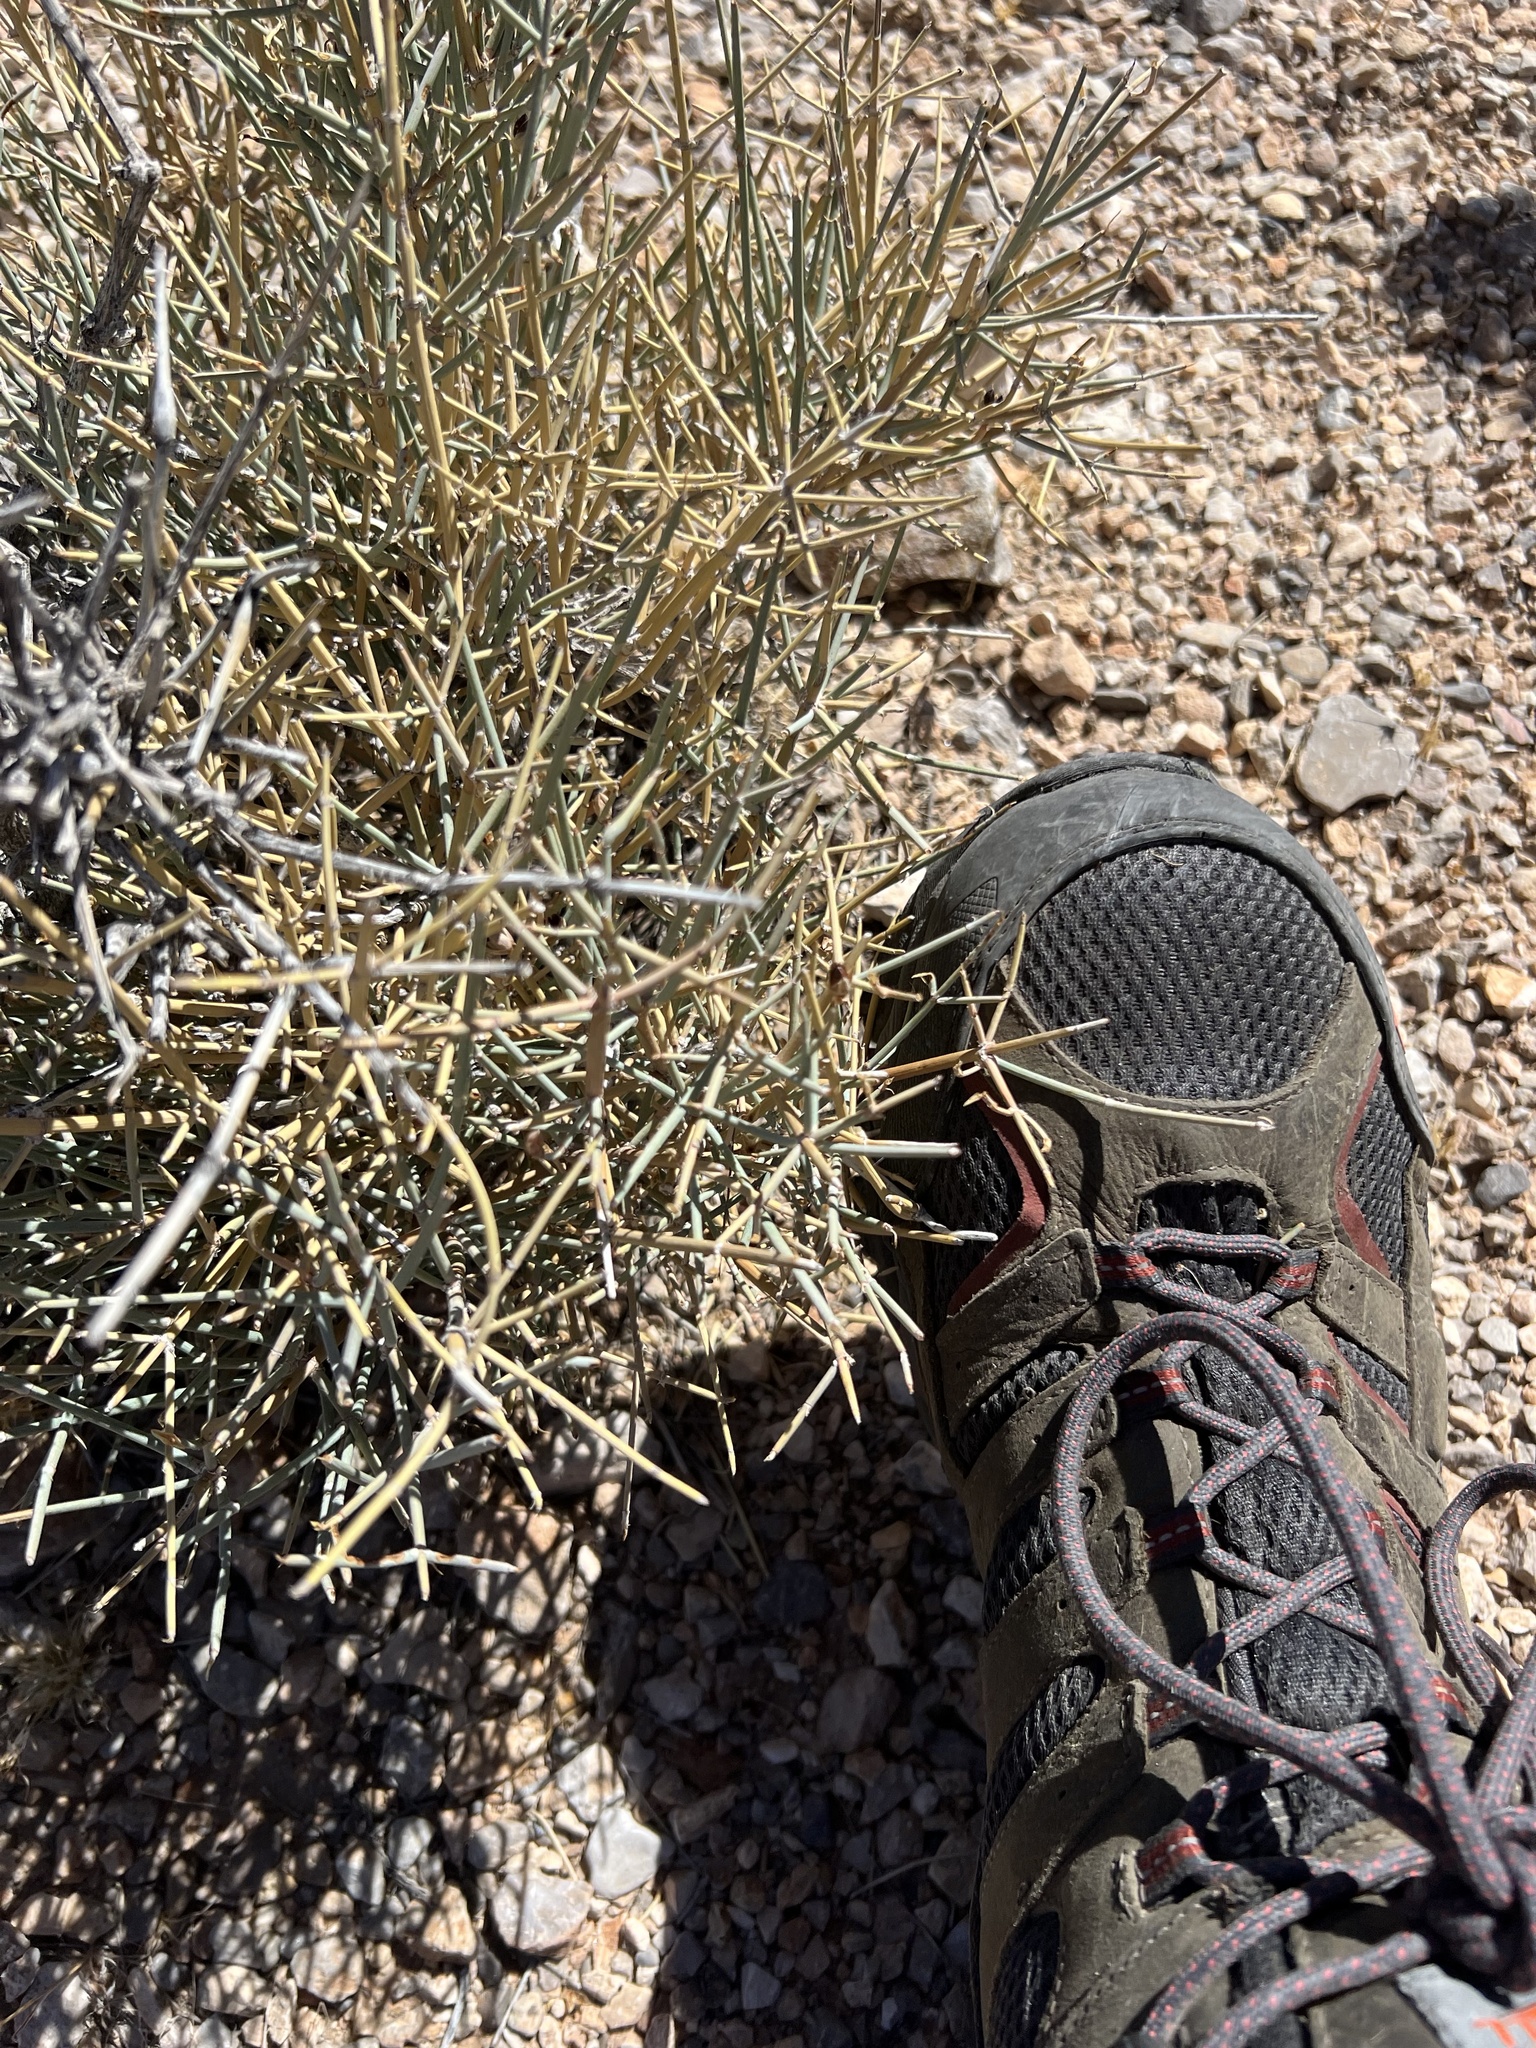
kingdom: Plantae
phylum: Tracheophyta
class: Gnetopsida
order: Ephedrales
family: Ephedraceae
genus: Ephedra
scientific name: Ephedra nevadensis
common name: Gray ephedra
